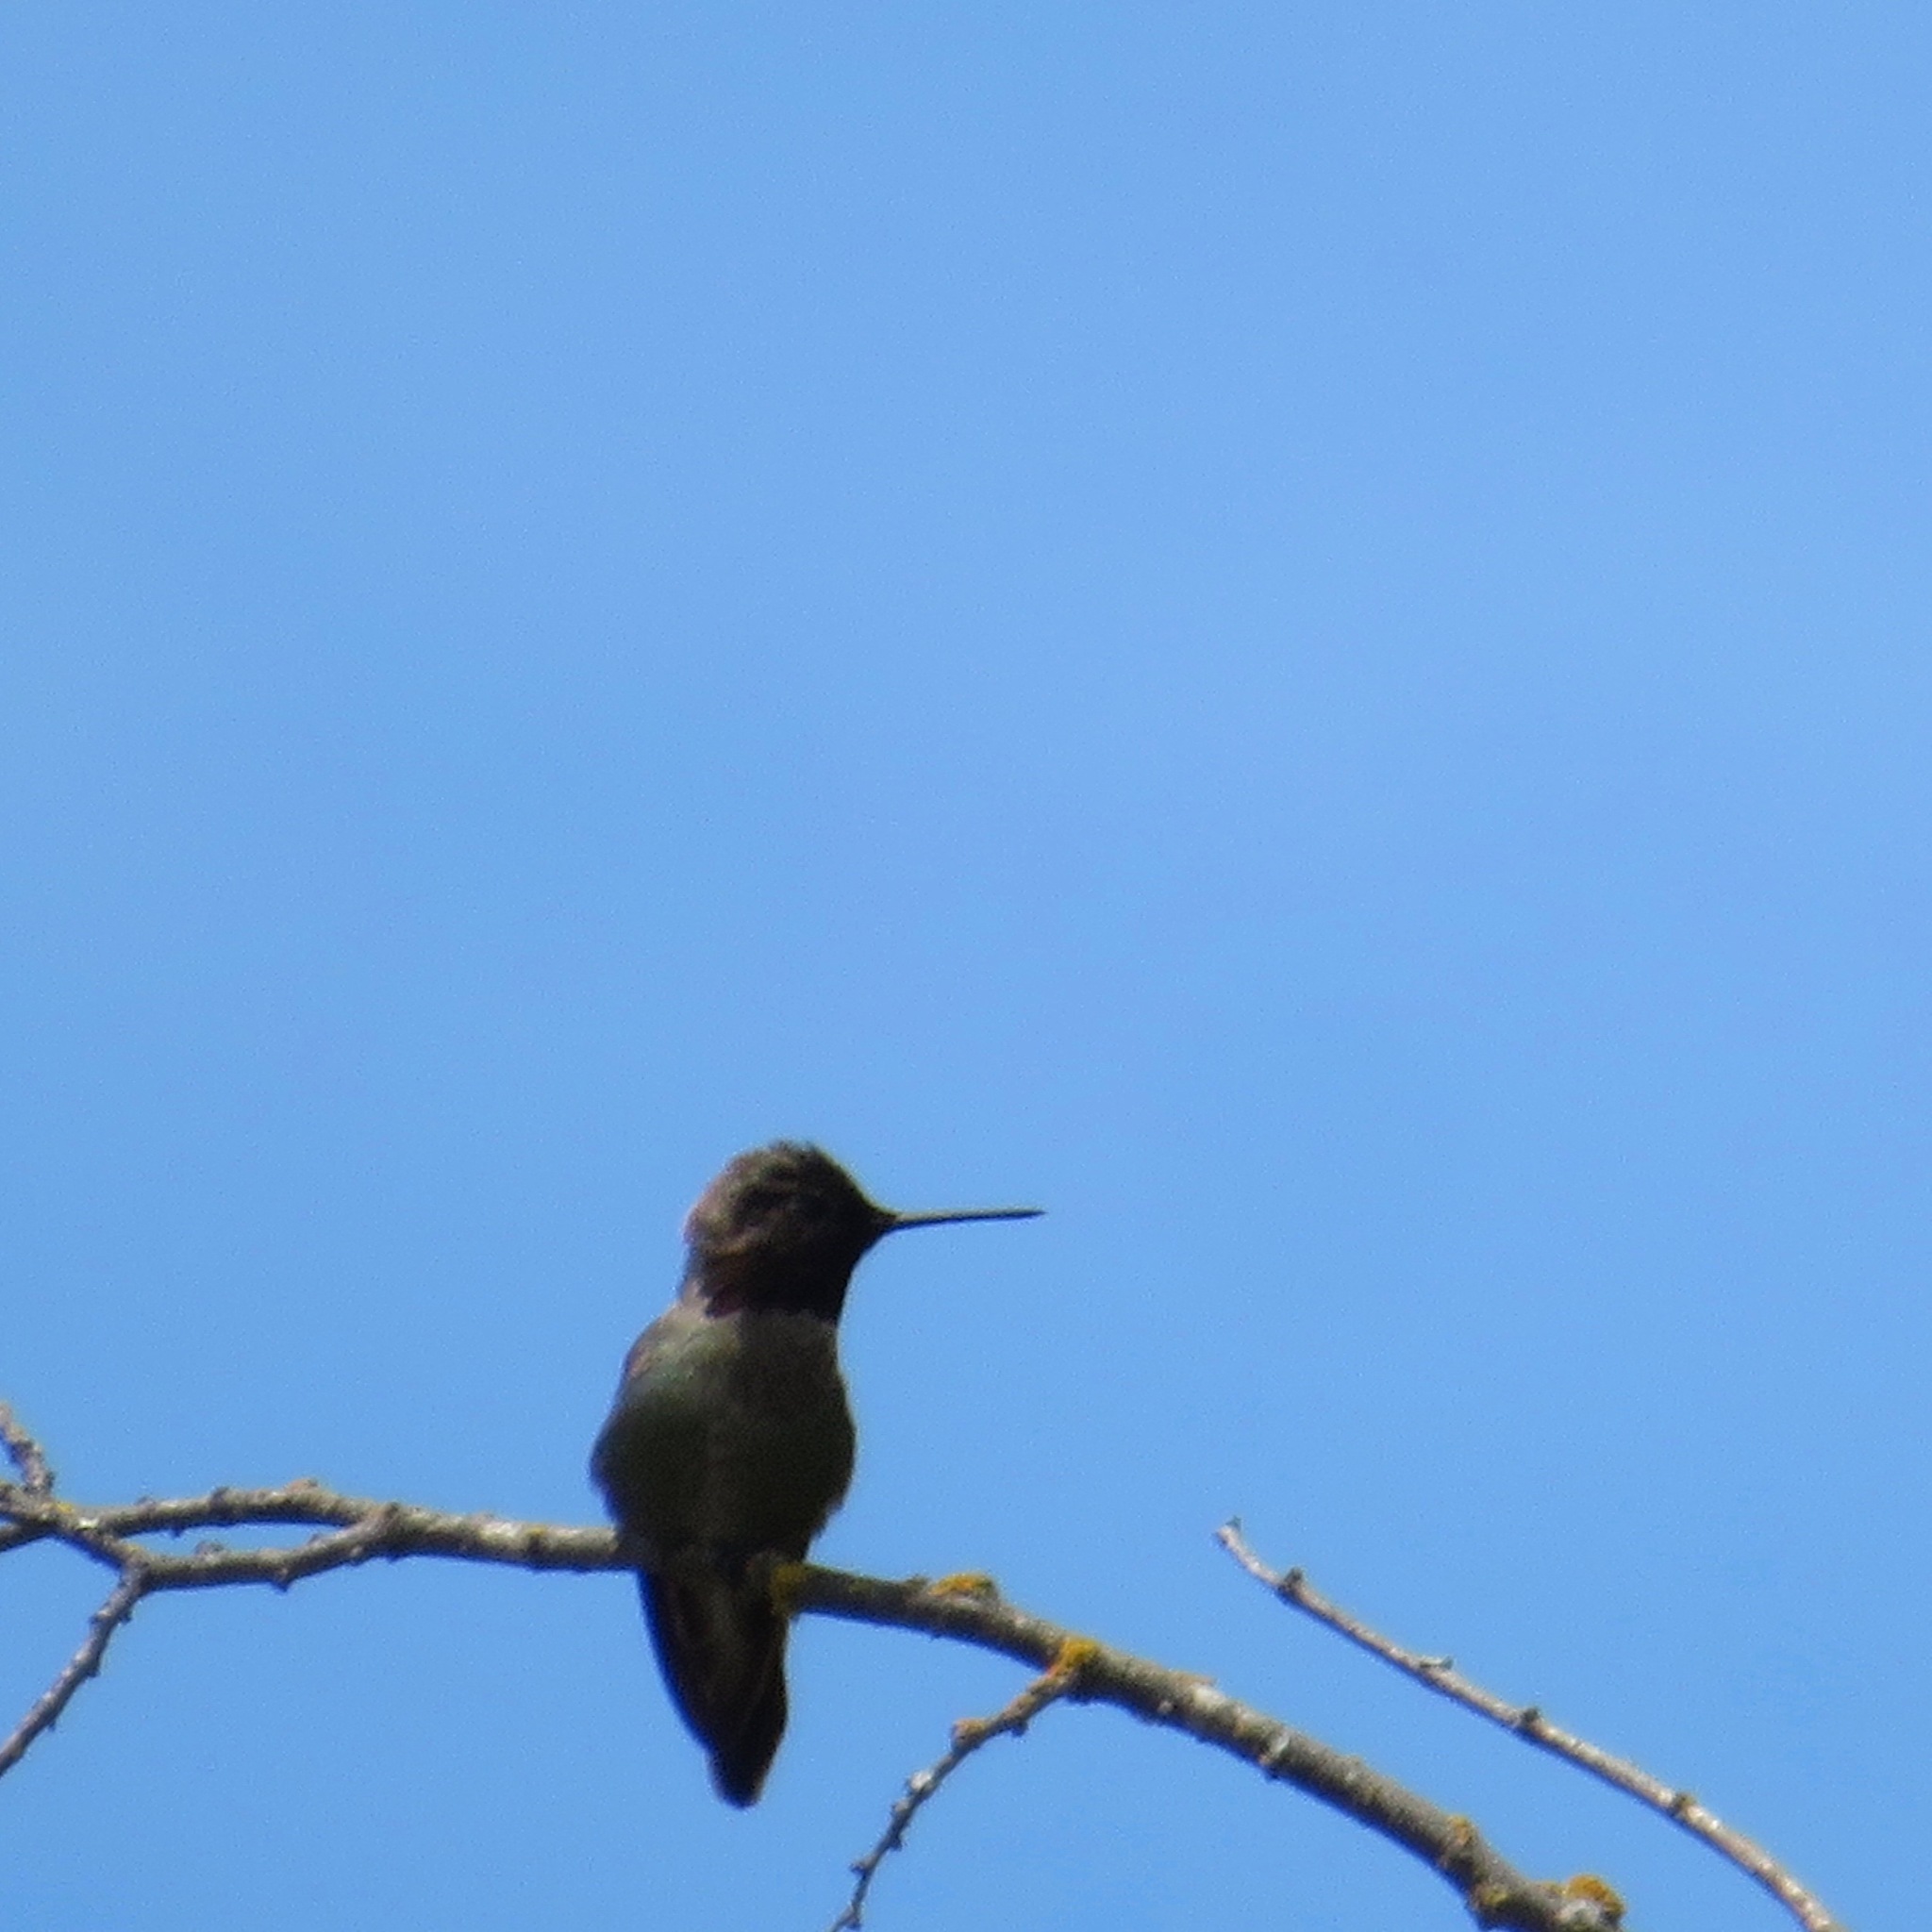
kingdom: Animalia
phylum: Chordata
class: Aves
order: Apodiformes
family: Trochilidae
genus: Calypte
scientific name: Calypte anna
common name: Anna's hummingbird
